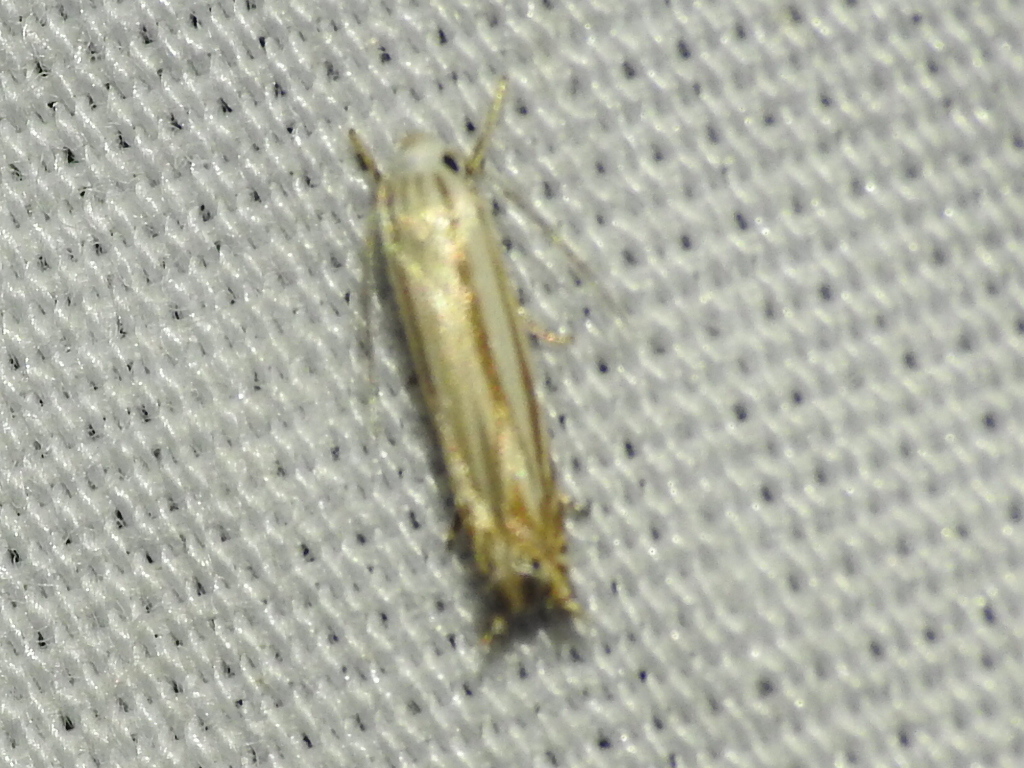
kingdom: Animalia
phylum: Arthropoda
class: Insecta
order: Lepidoptera
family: Gelechiidae
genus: Polyhymno
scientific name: Polyhymno luteostrigella
